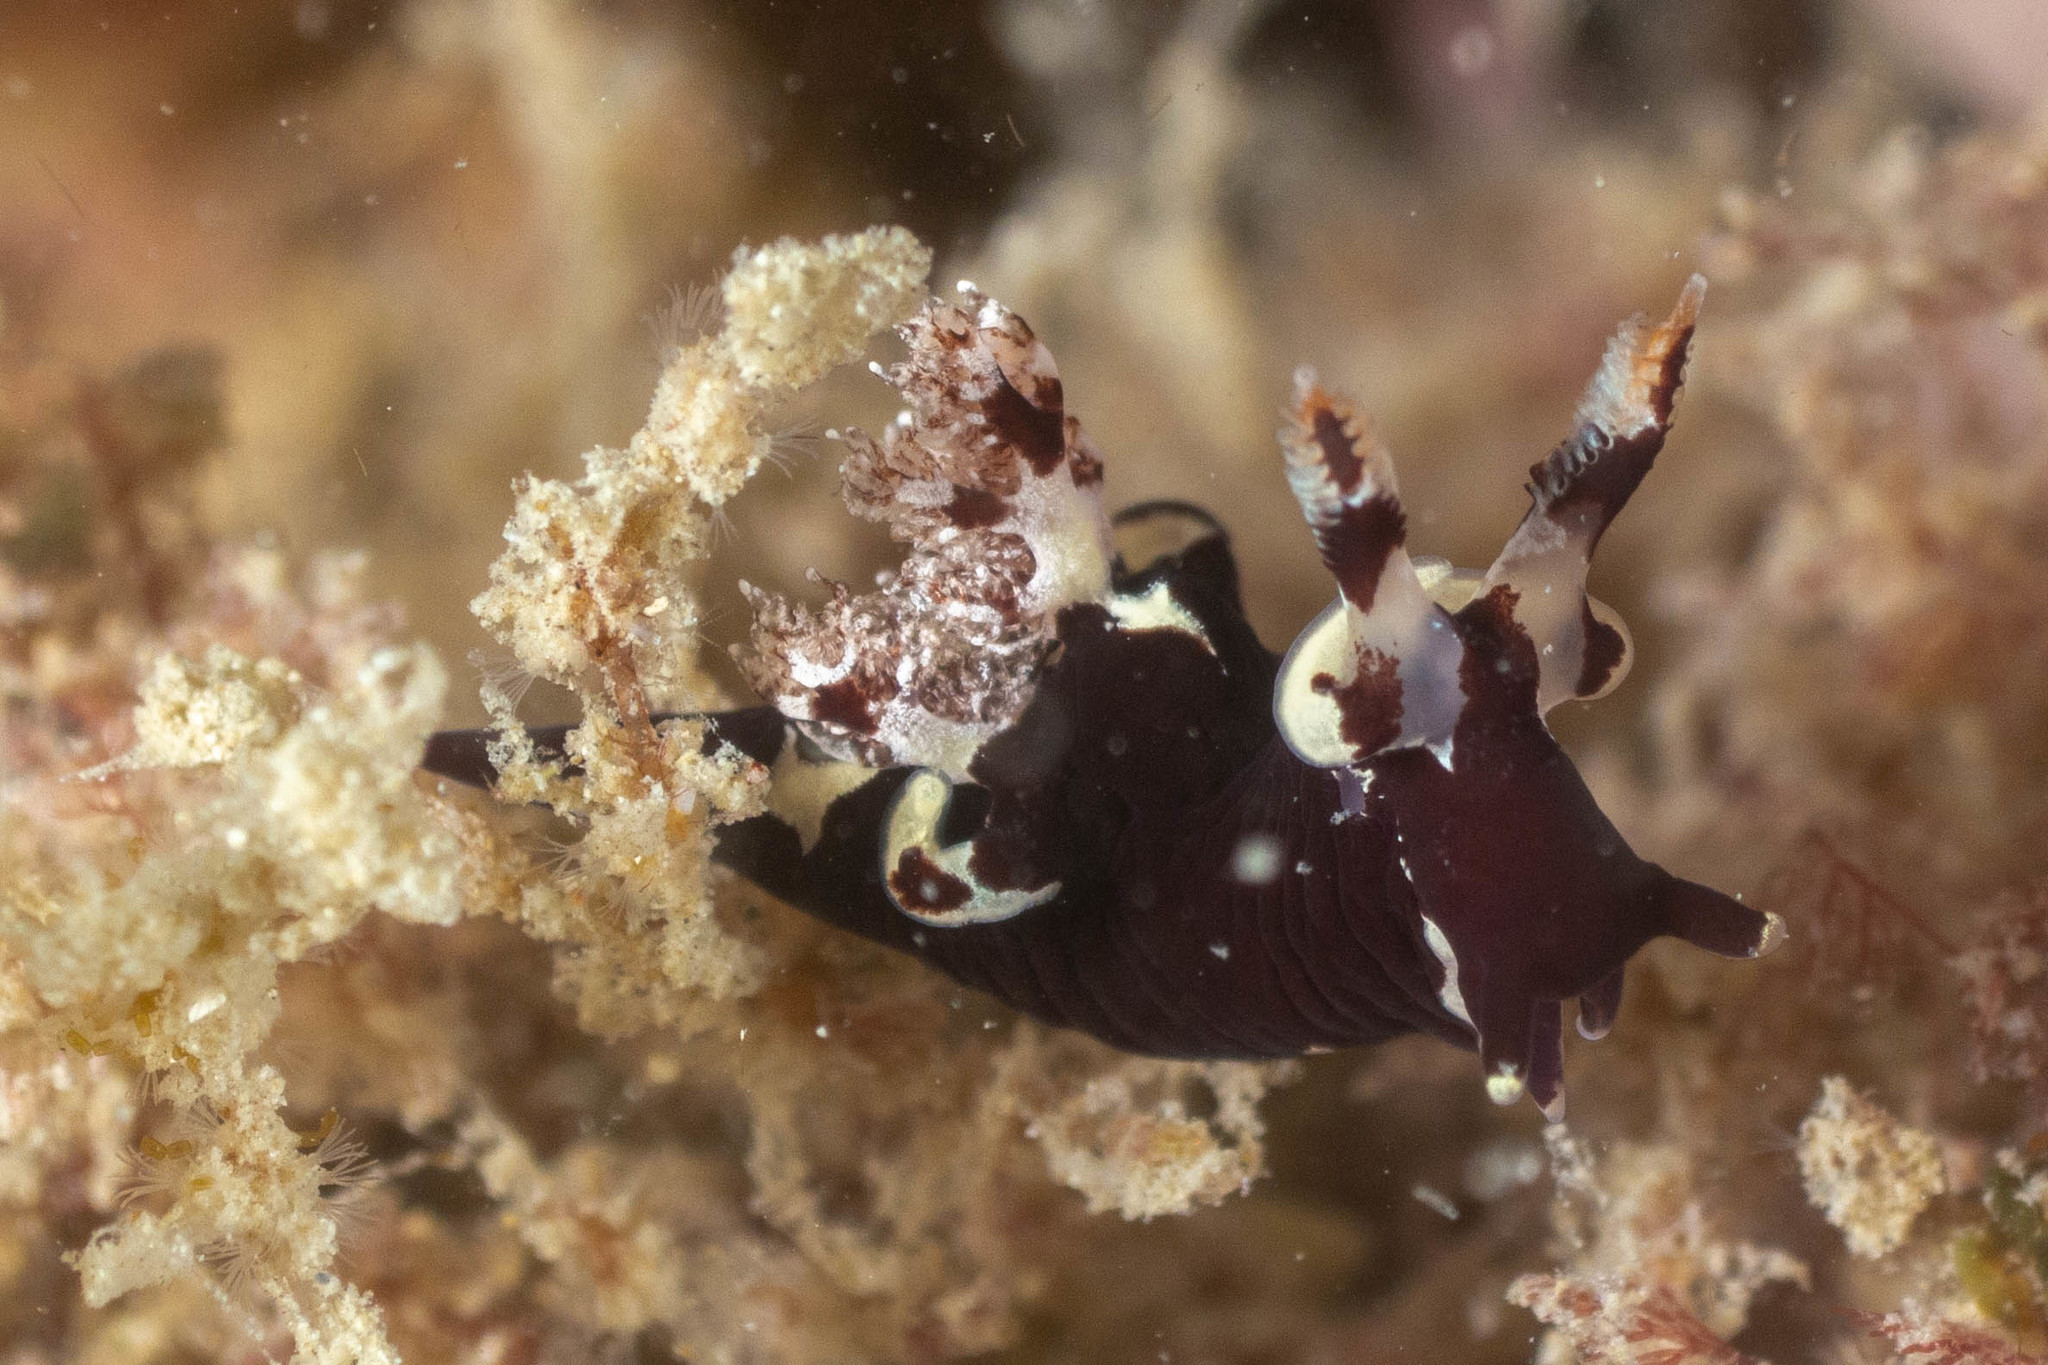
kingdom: Animalia
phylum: Mollusca
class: Gastropoda
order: Nudibranchia
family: Goniodorididae
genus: Trapania
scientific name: Trapania safracornia
